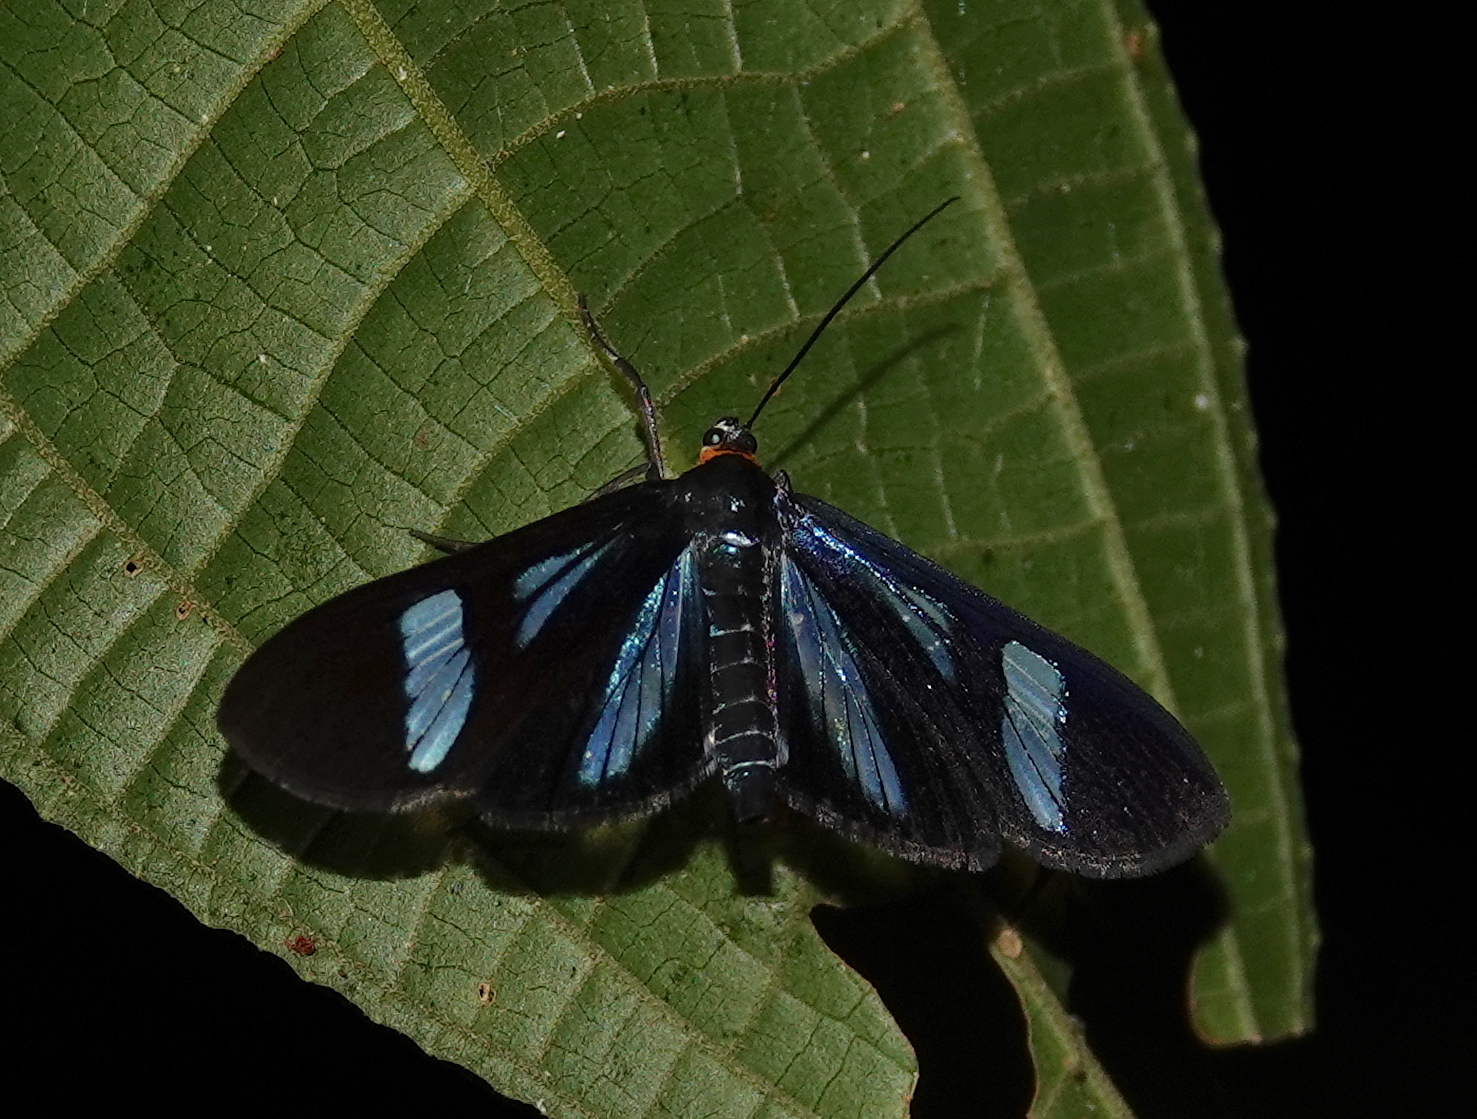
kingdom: Animalia
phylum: Arthropoda
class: Insecta
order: Lepidoptera
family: Erebidae
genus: Agyrta
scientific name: Agyrta dux
